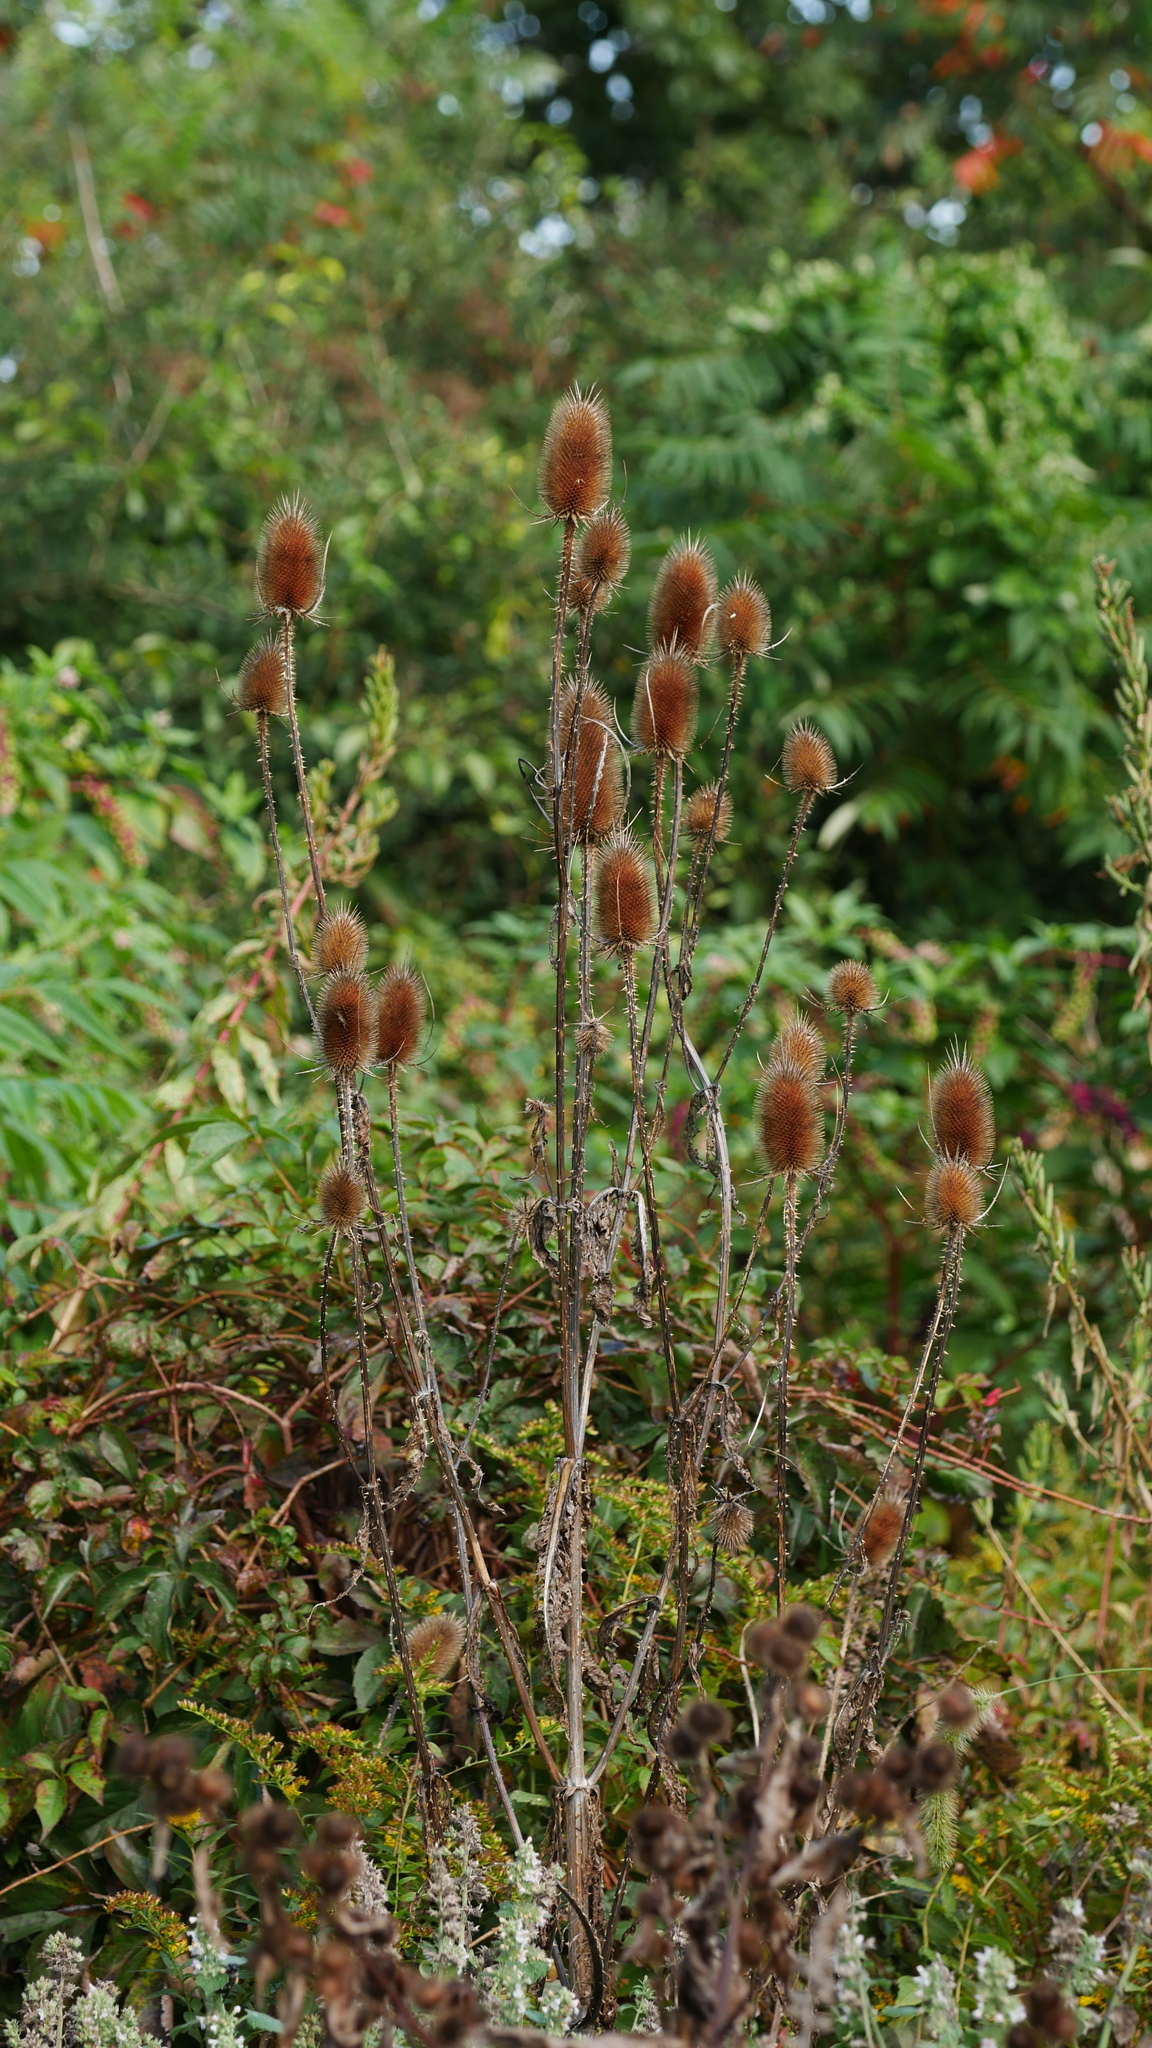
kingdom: Plantae
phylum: Tracheophyta
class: Magnoliopsida
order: Dipsacales
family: Caprifoliaceae
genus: Dipsacus
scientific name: Dipsacus fullonum
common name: Teasel
